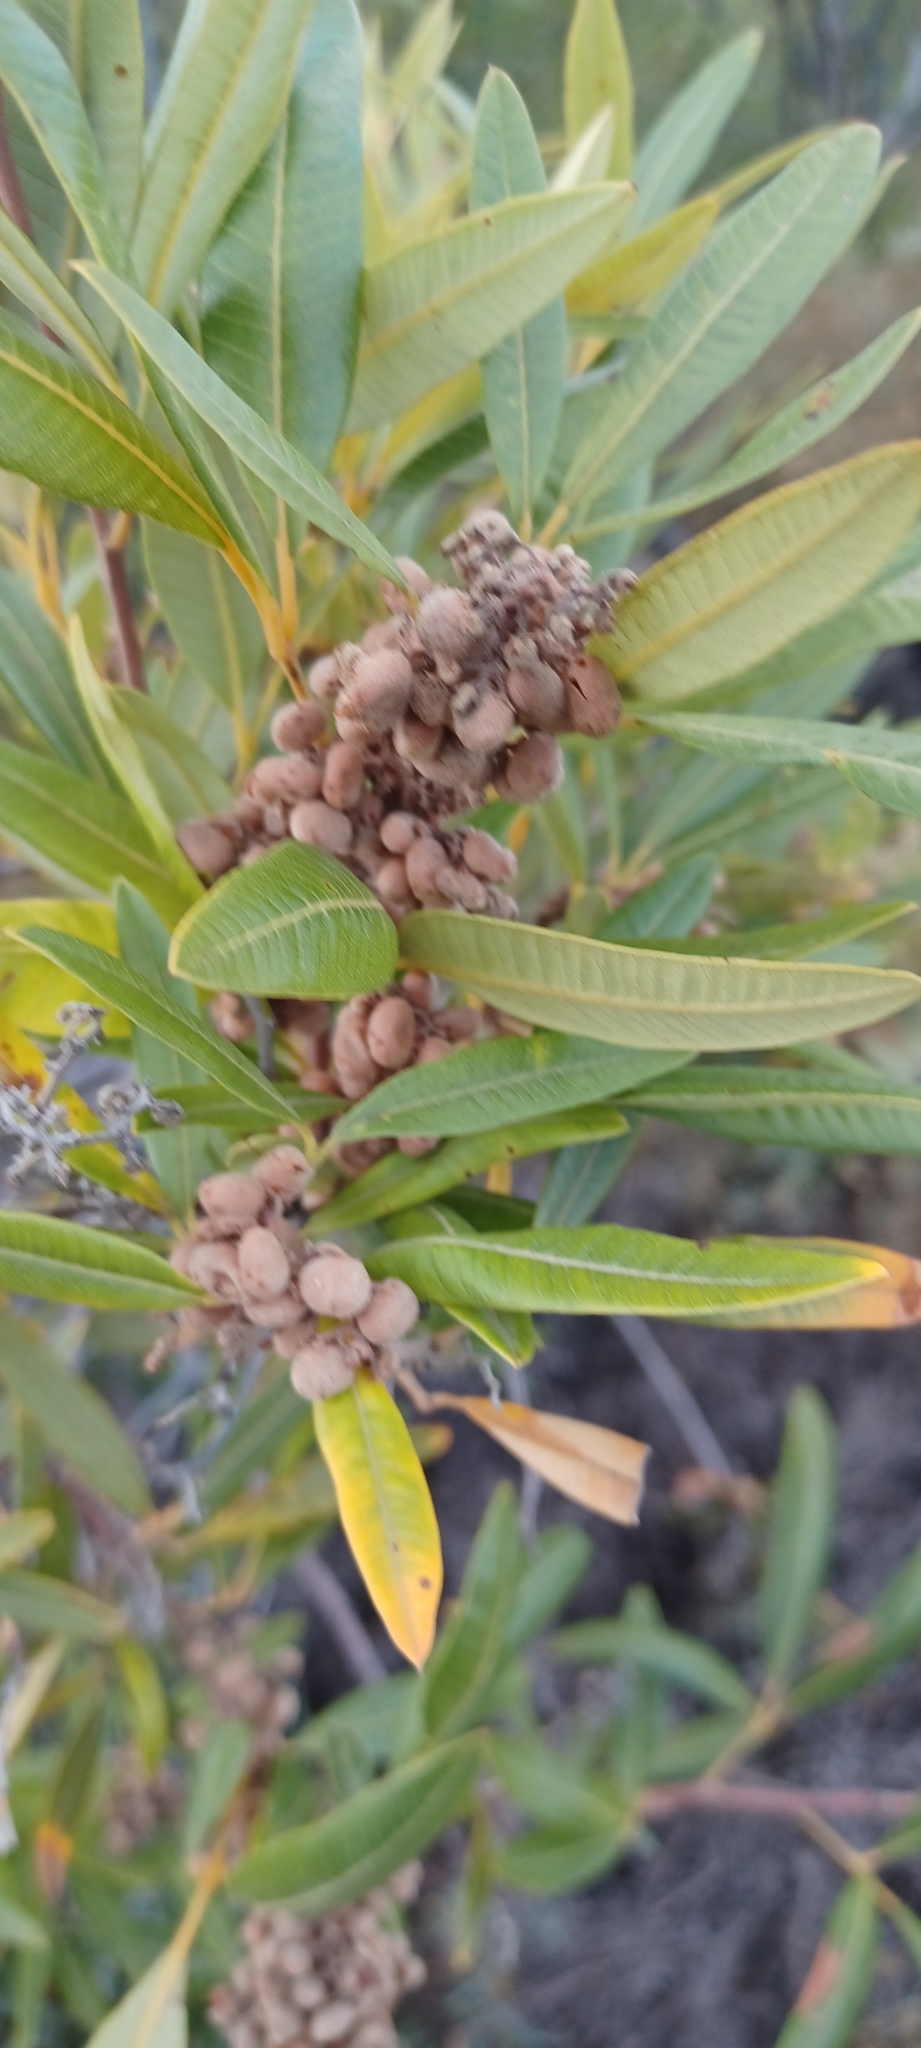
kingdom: Plantae
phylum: Tracheophyta
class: Magnoliopsida
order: Sapindales
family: Anacardiaceae
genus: Searsia
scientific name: Searsia angustifolia
